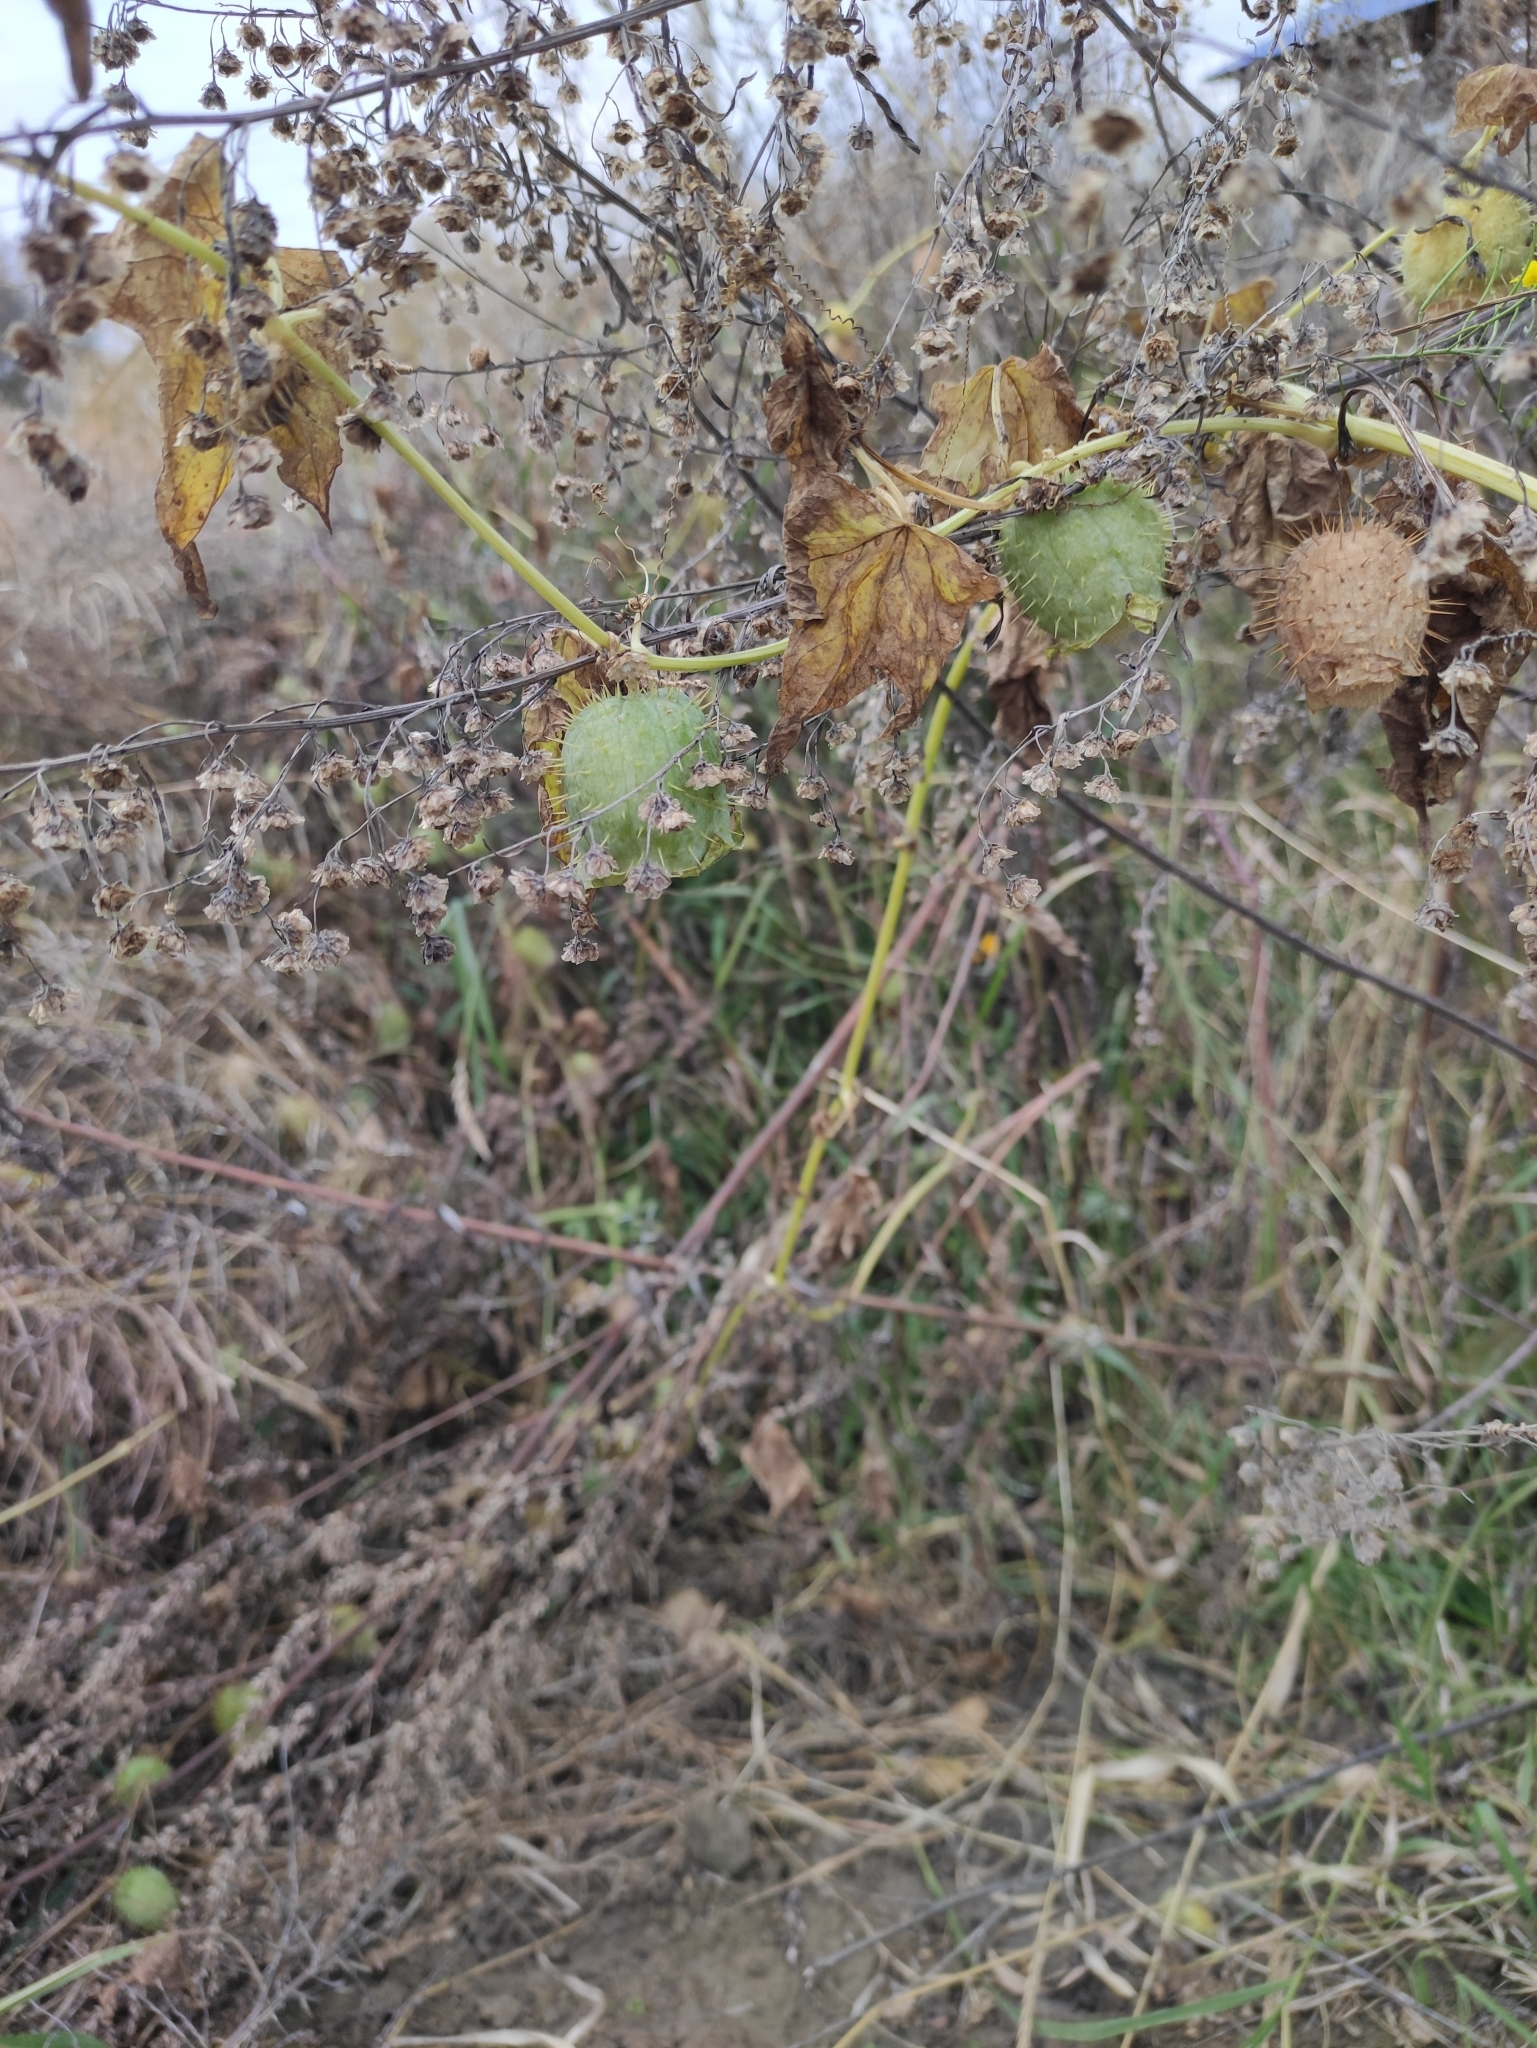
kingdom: Plantae
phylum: Tracheophyta
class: Magnoliopsida
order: Cucurbitales
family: Cucurbitaceae
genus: Echinocystis
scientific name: Echinocystis lobata
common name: Wild cucumber
